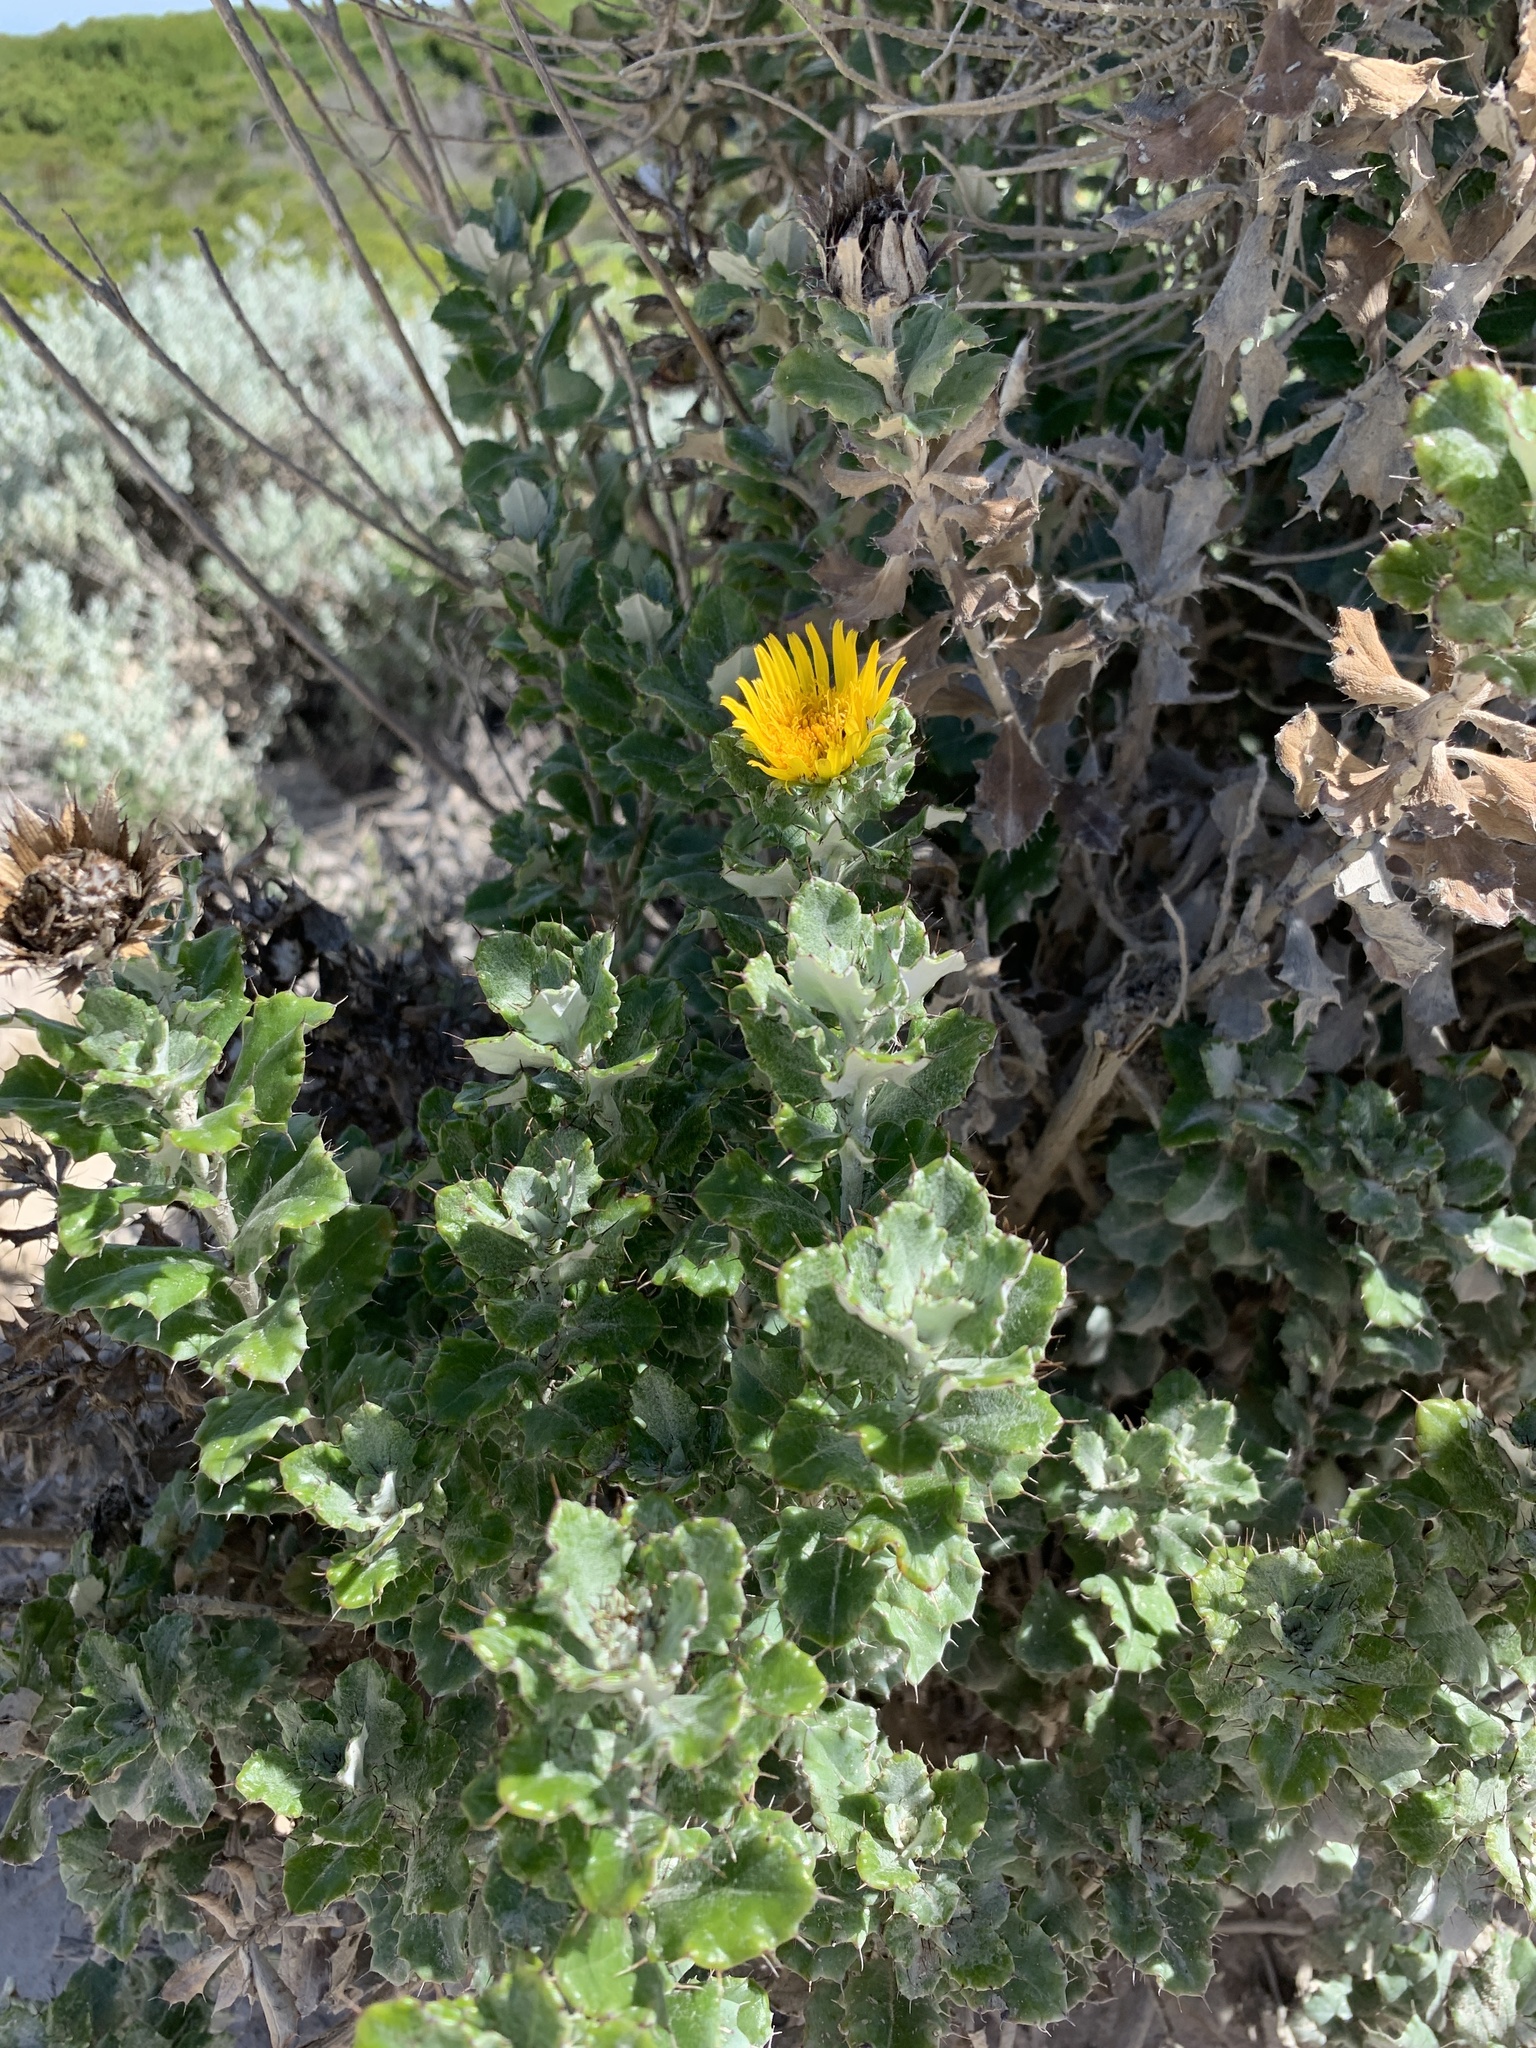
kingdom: Plantae
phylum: Tracheophyta
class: Magnoliopsida
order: Asterales
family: Asteraceae
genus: Berkheya
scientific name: Berkheya coriacea
